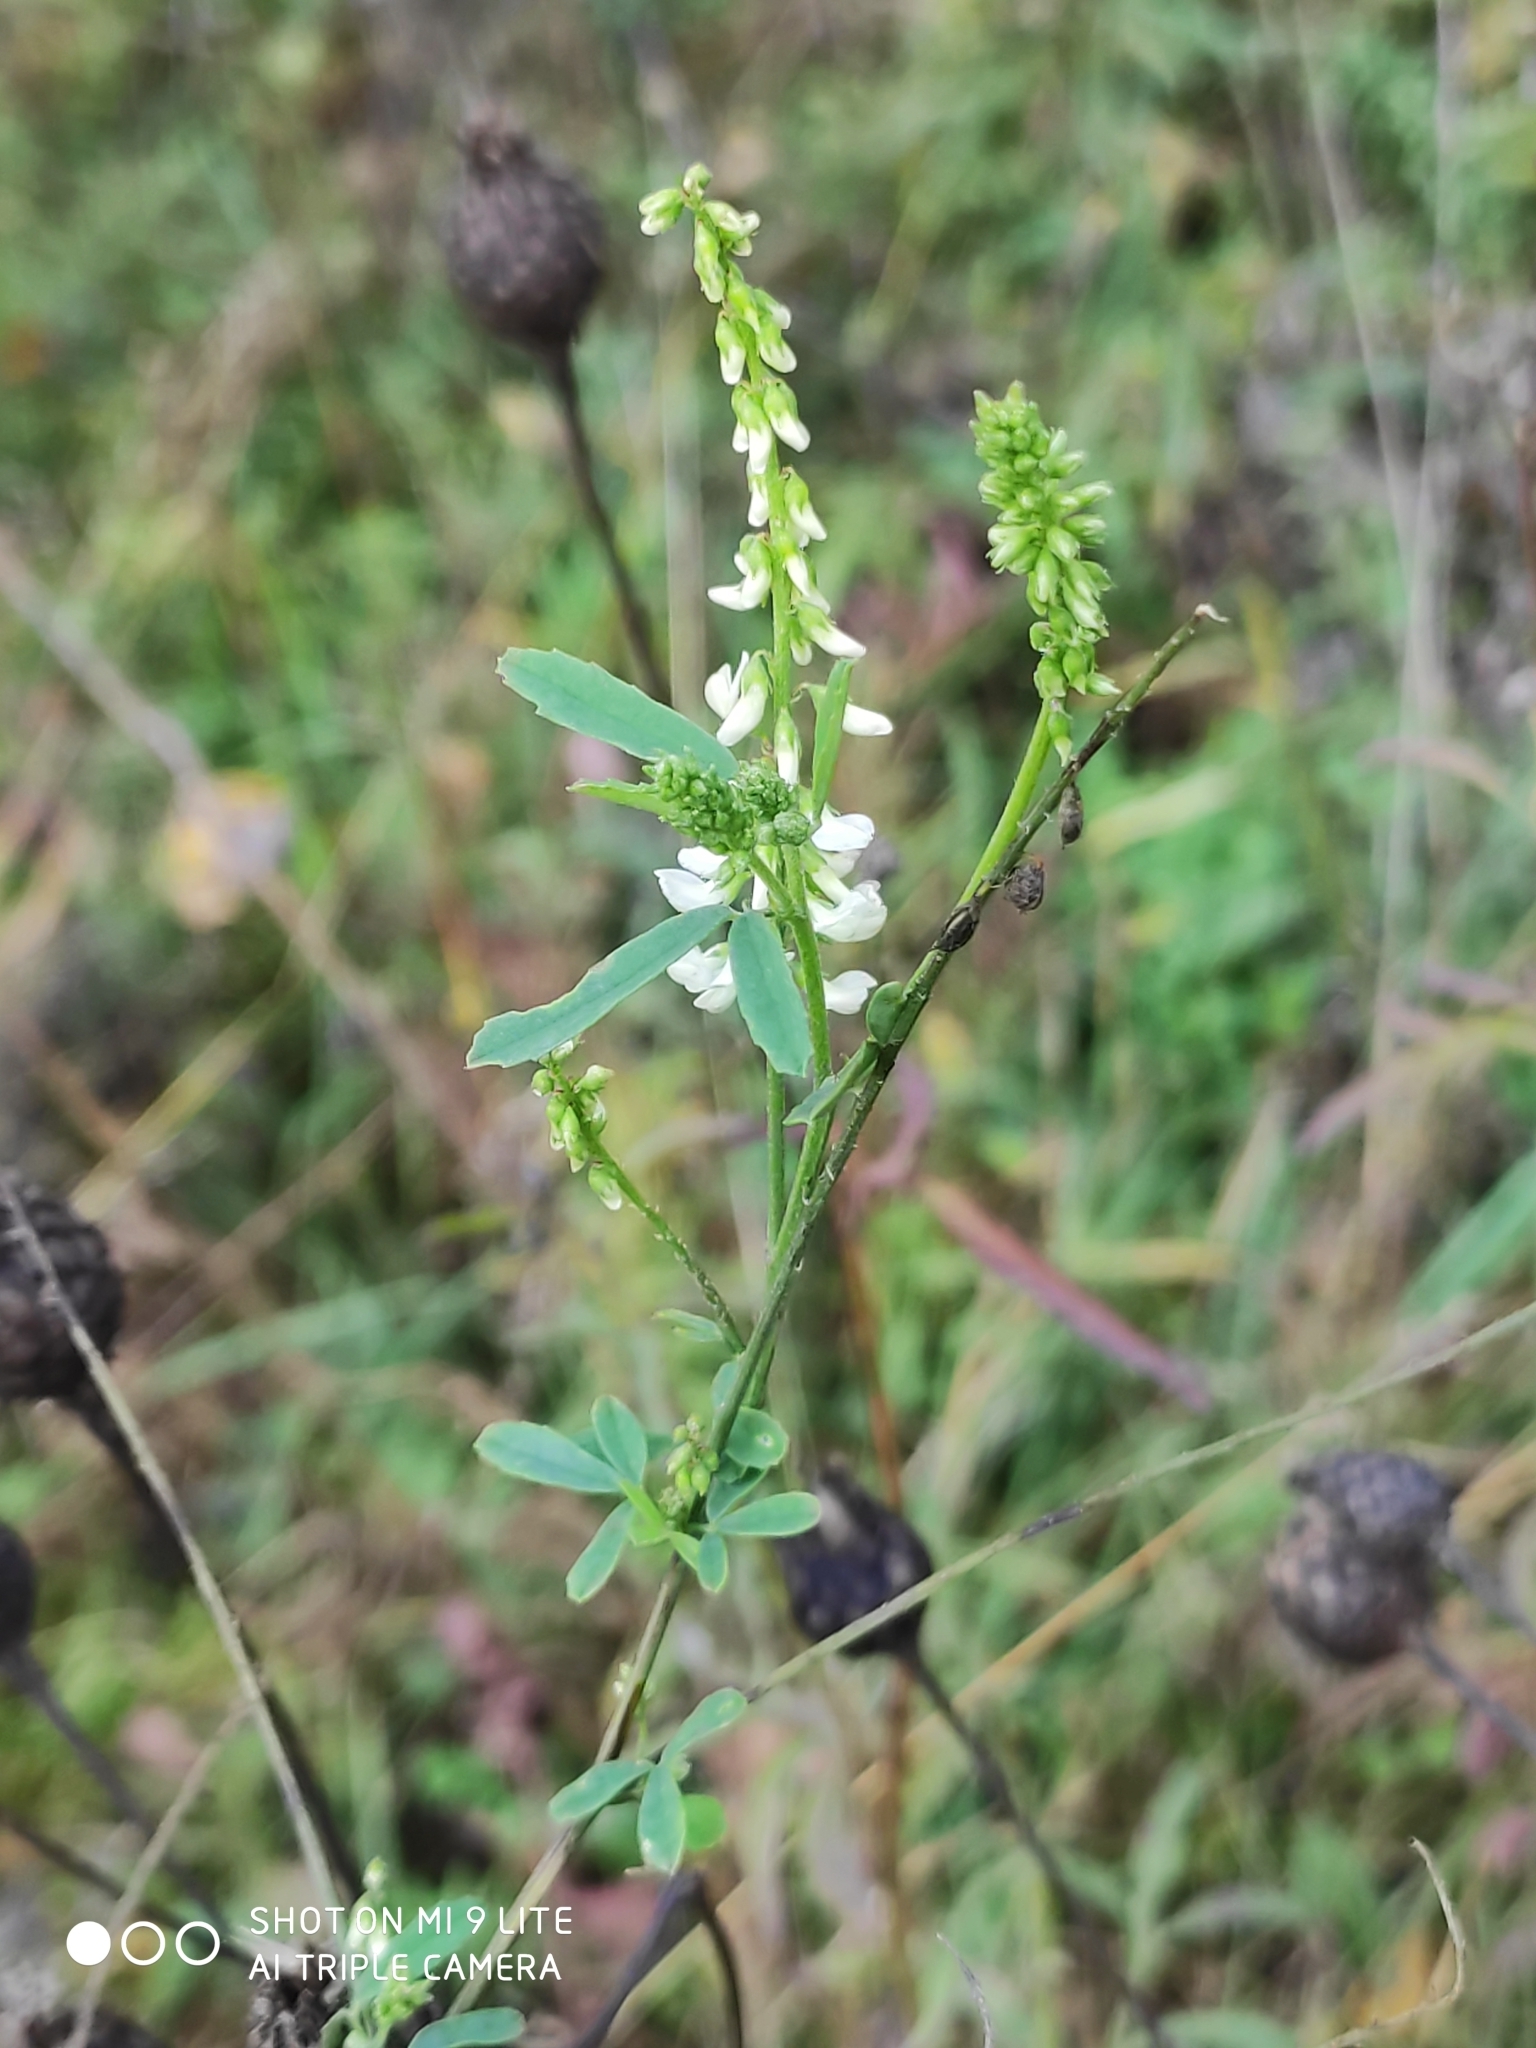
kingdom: Plantae
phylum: Tracheophyta
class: Magnoliopsida
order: Fabales
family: Fabaceae
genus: Melilotus
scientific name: Melilotus albus
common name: White melilot
